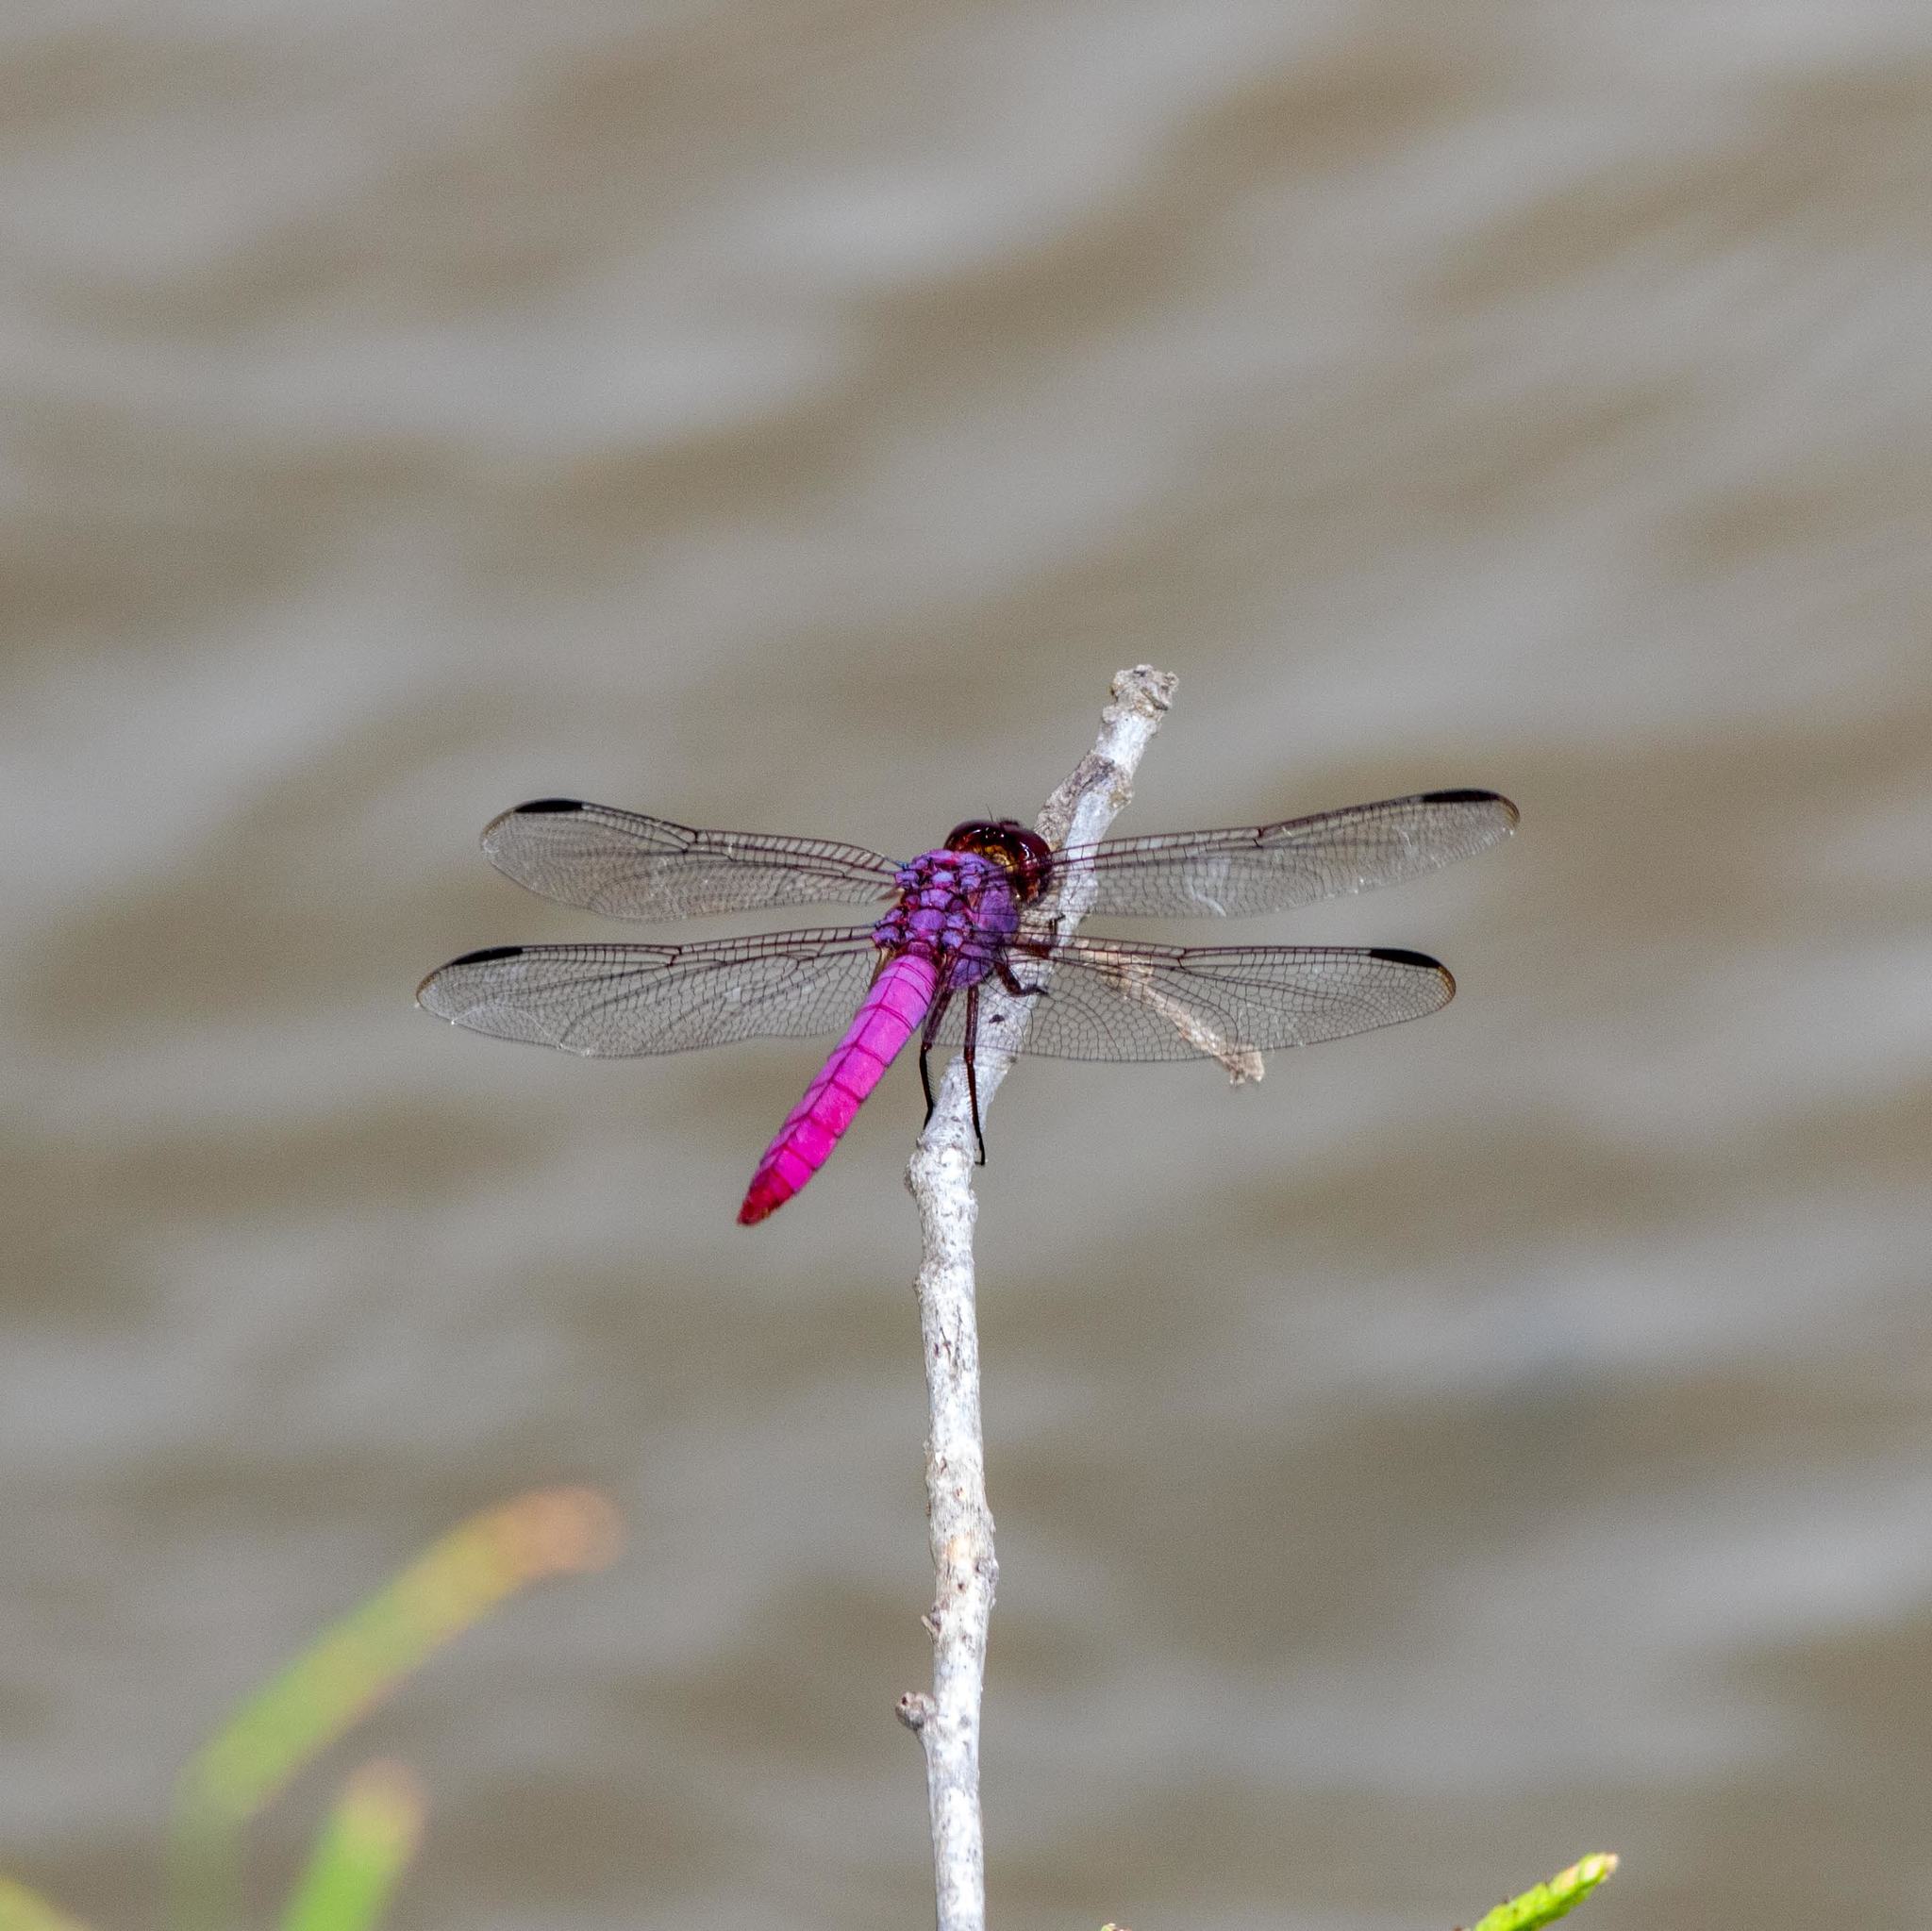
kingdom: Animalia
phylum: Arthropoda
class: Insecta
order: Odonata
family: Libellulidae
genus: Orthemis
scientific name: Orthemis ferruginea
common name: Roseate skimmer
